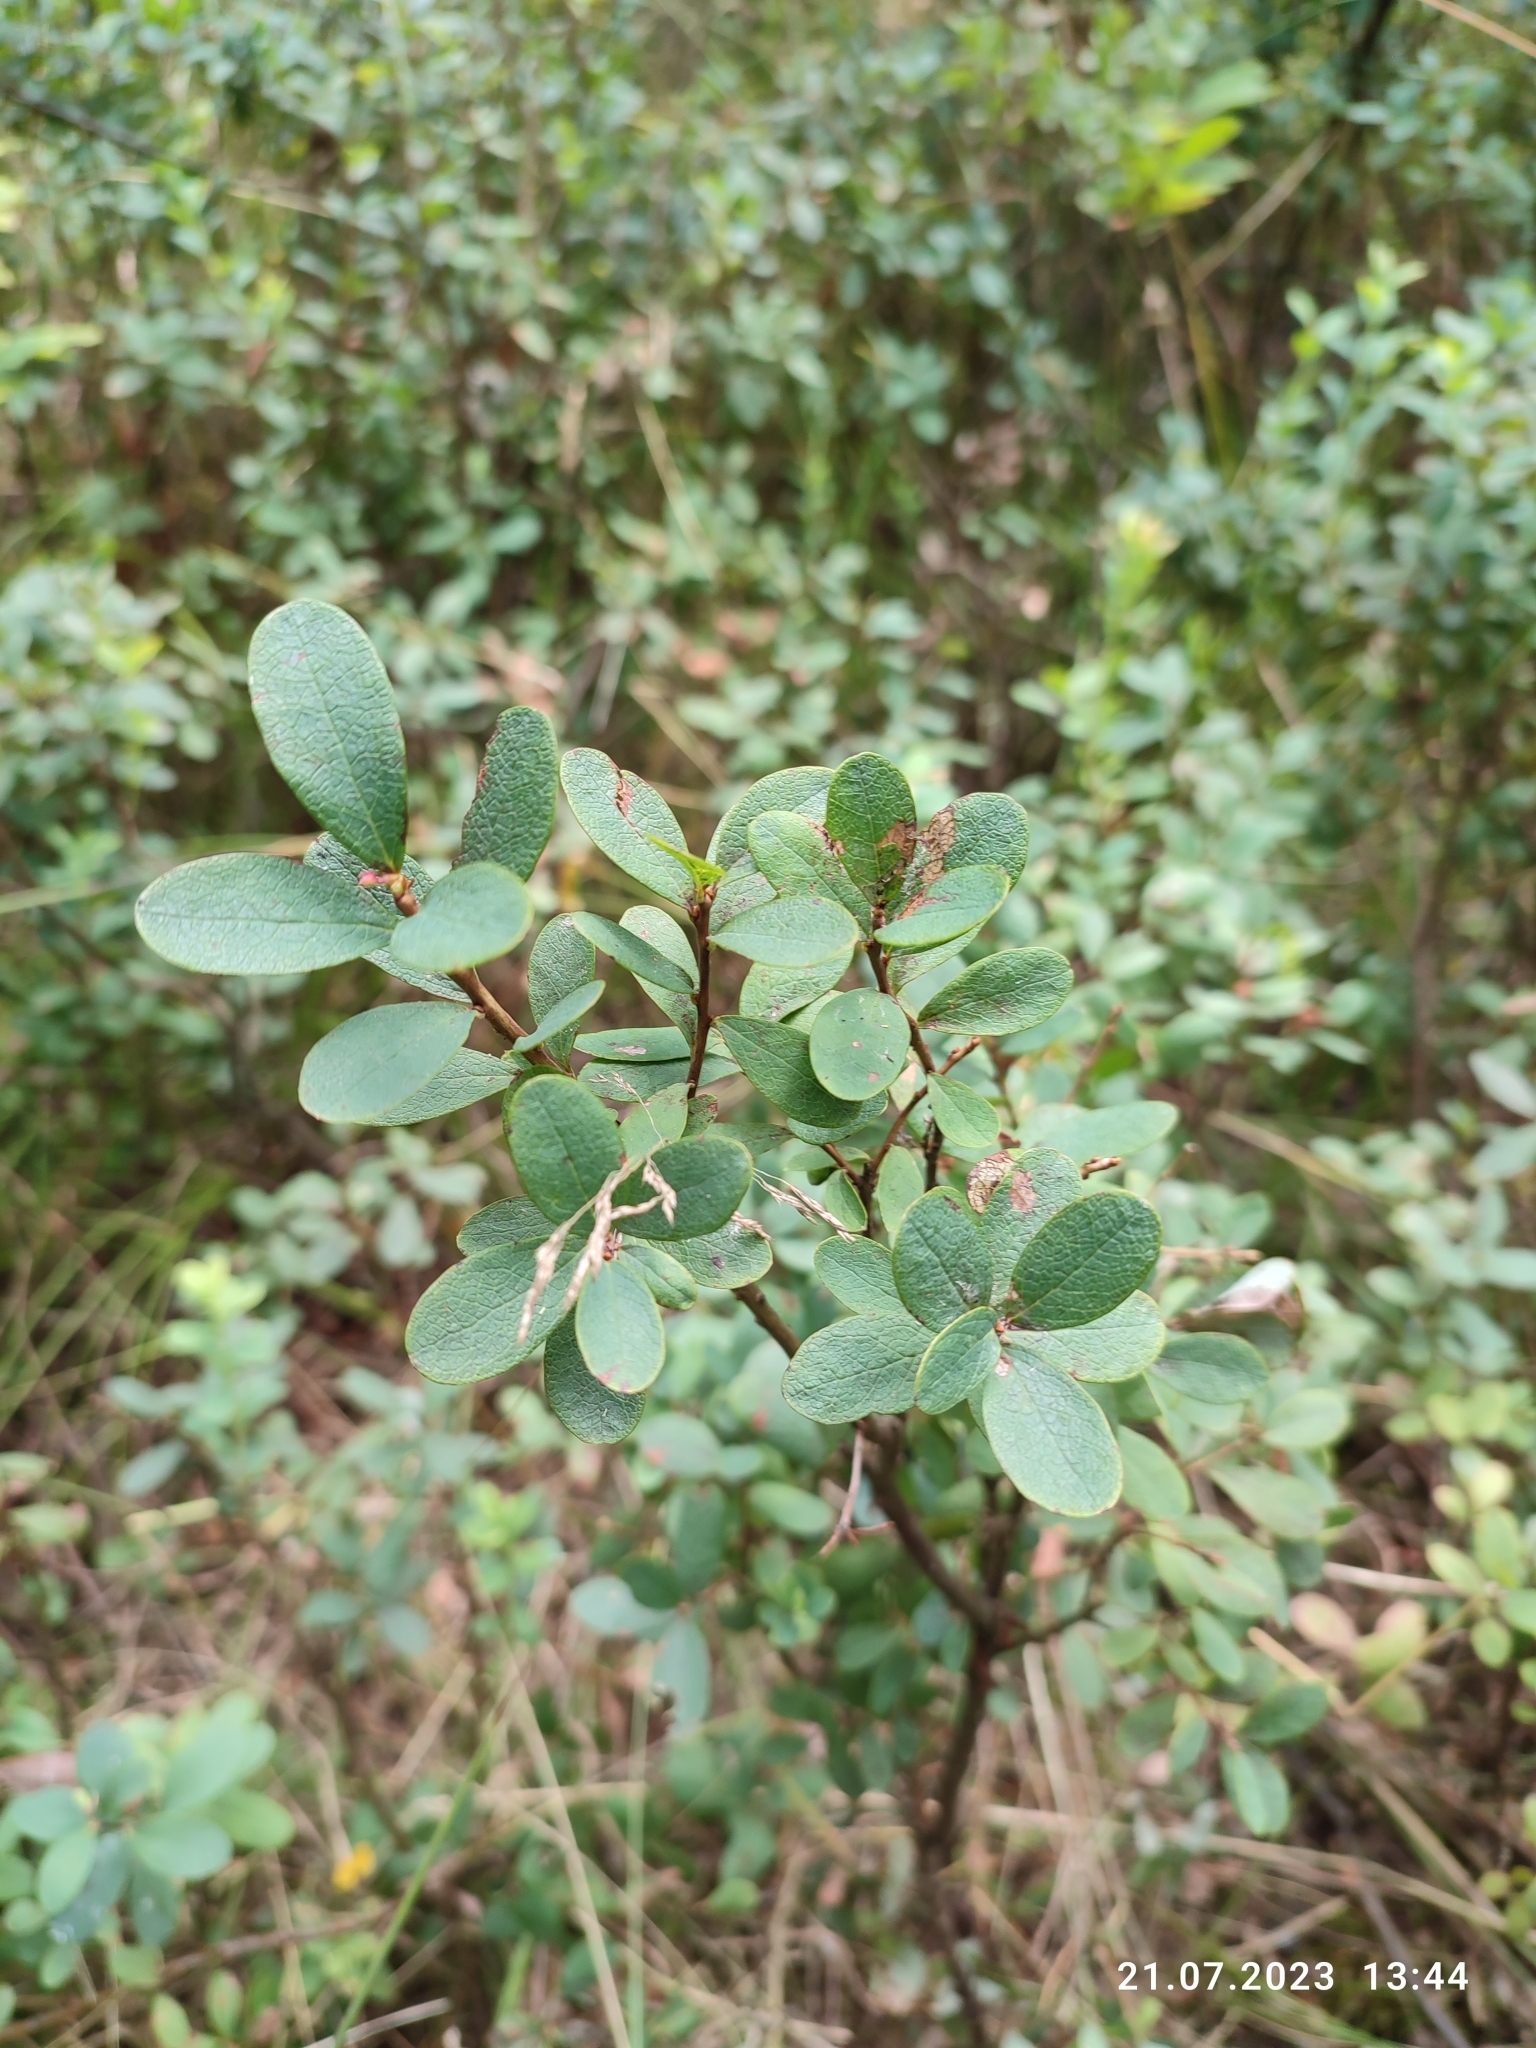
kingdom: Plantae
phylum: Tracheophyta
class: Magnoliopsida
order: Ericales
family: Ericaceae
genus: Vaccinium
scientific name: Vaccinium uliginosum
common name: Bog bilberry
